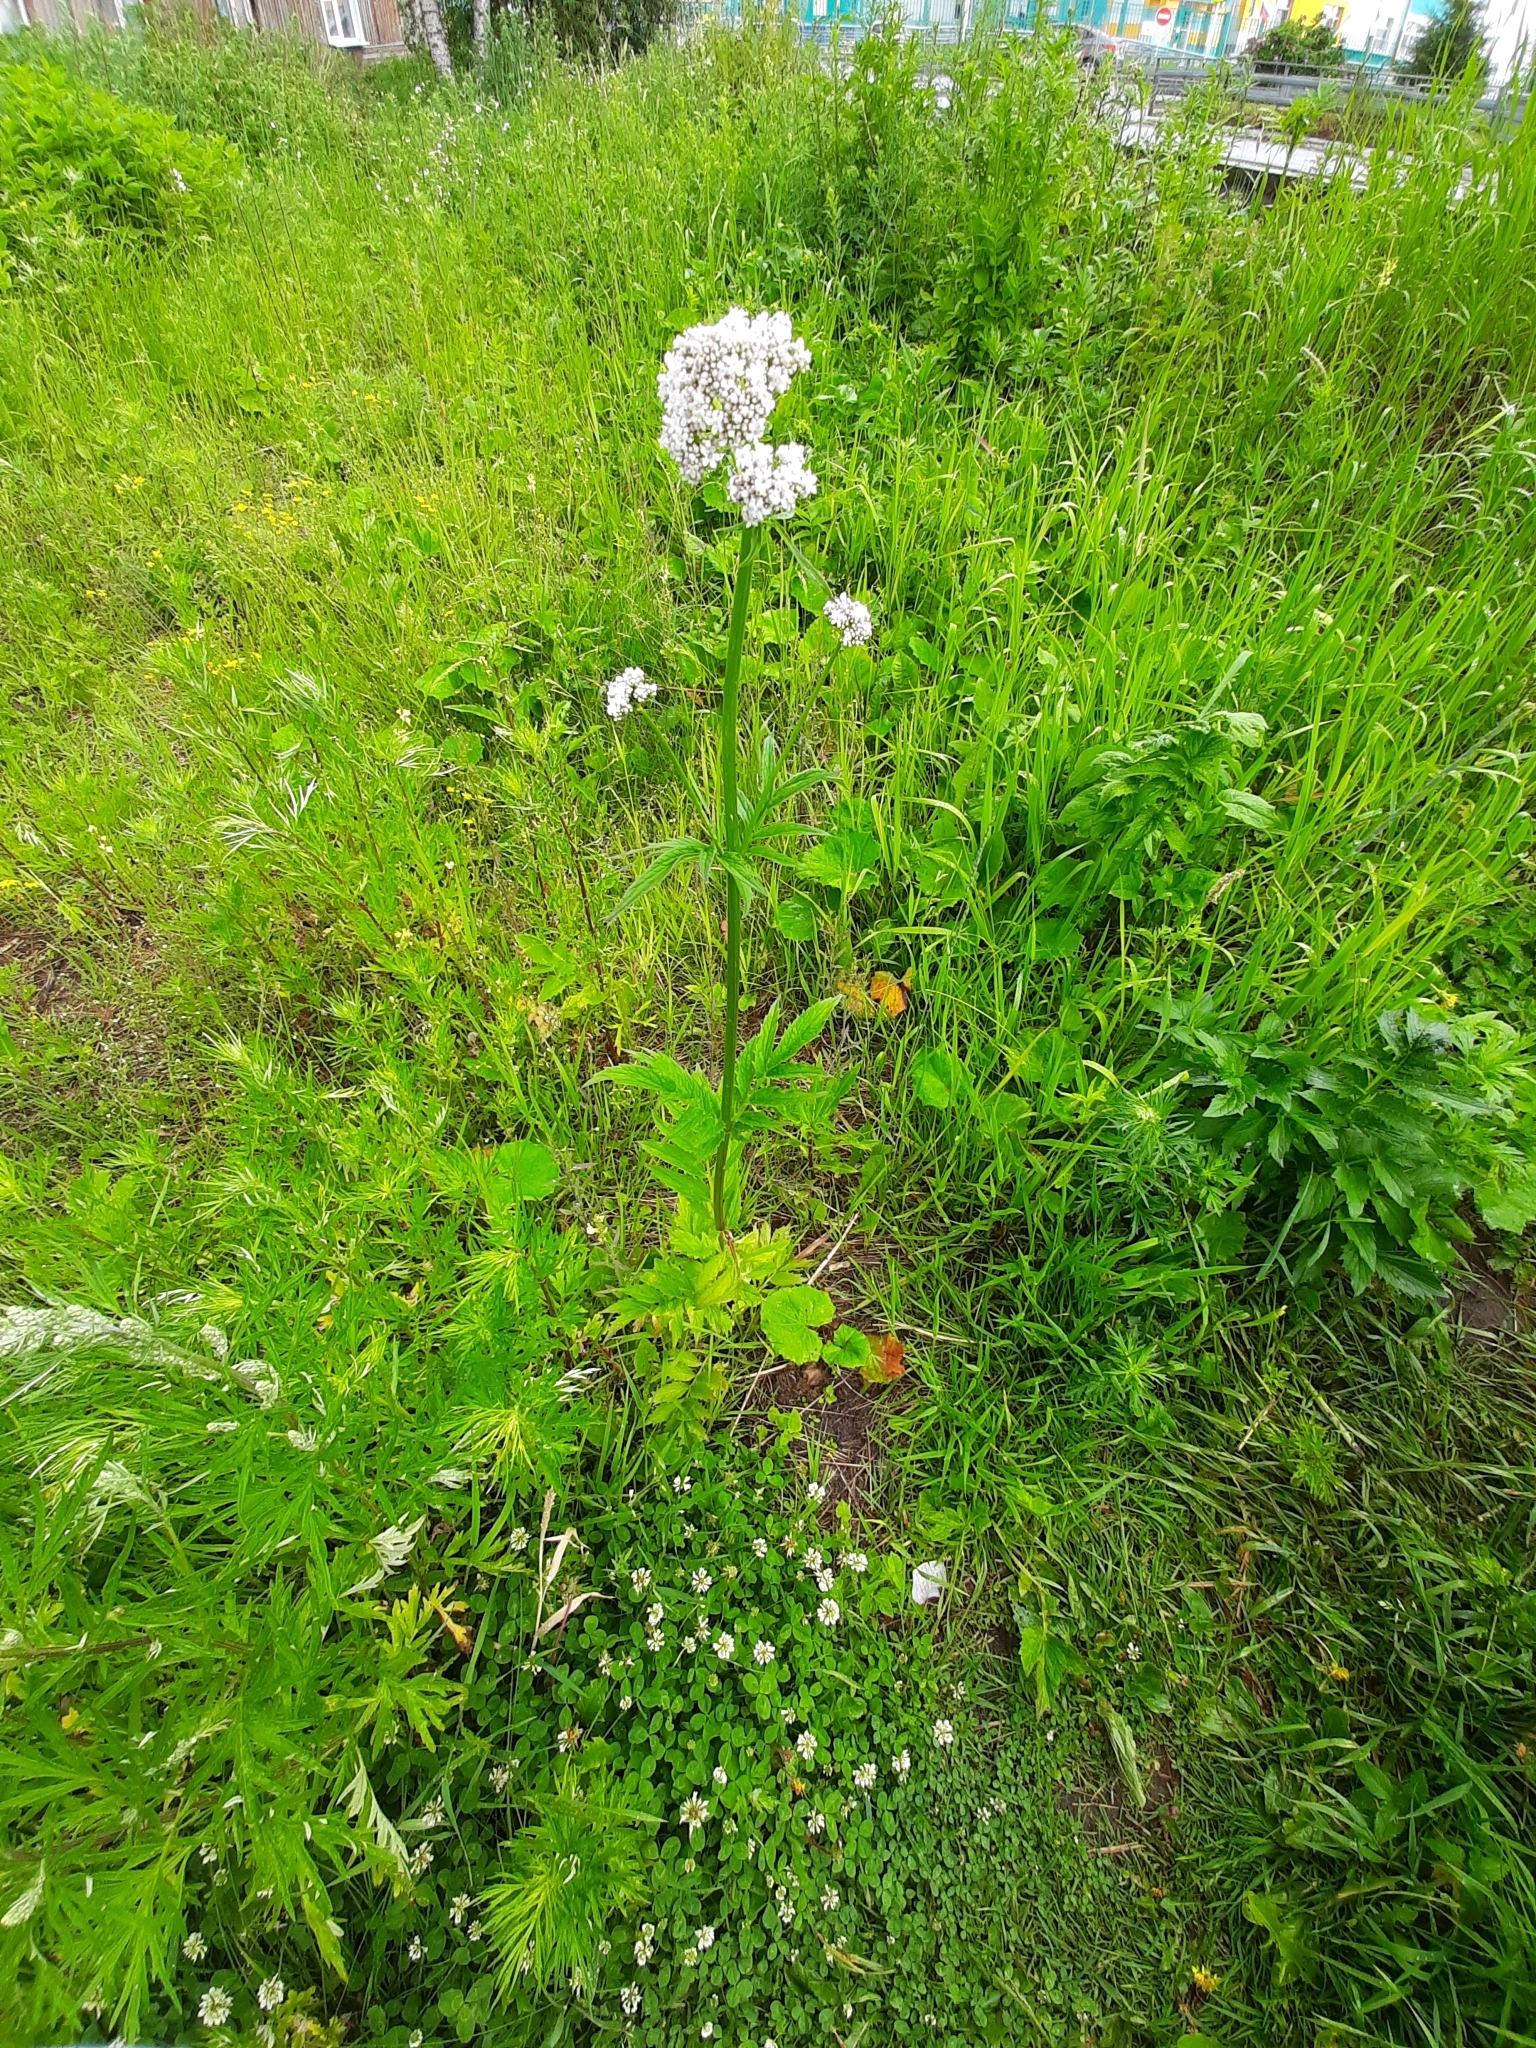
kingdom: Plantae
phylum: Tracheophyta
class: Magnoliopsida
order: Dipsacales
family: Caprifoliaceae
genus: Valeriana
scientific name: Valeriana wolgensis
